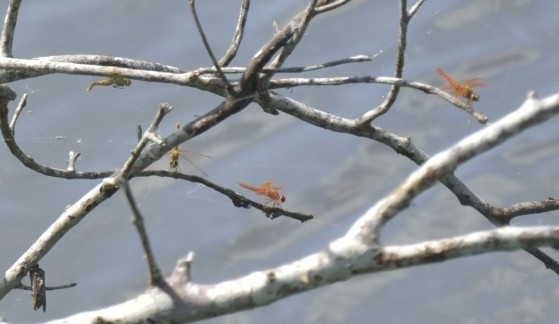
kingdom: Animalia
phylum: Arthropoda
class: Insecta
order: Odonata
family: Libellulidae
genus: Brachythemis
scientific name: Brachythemis contaminata
